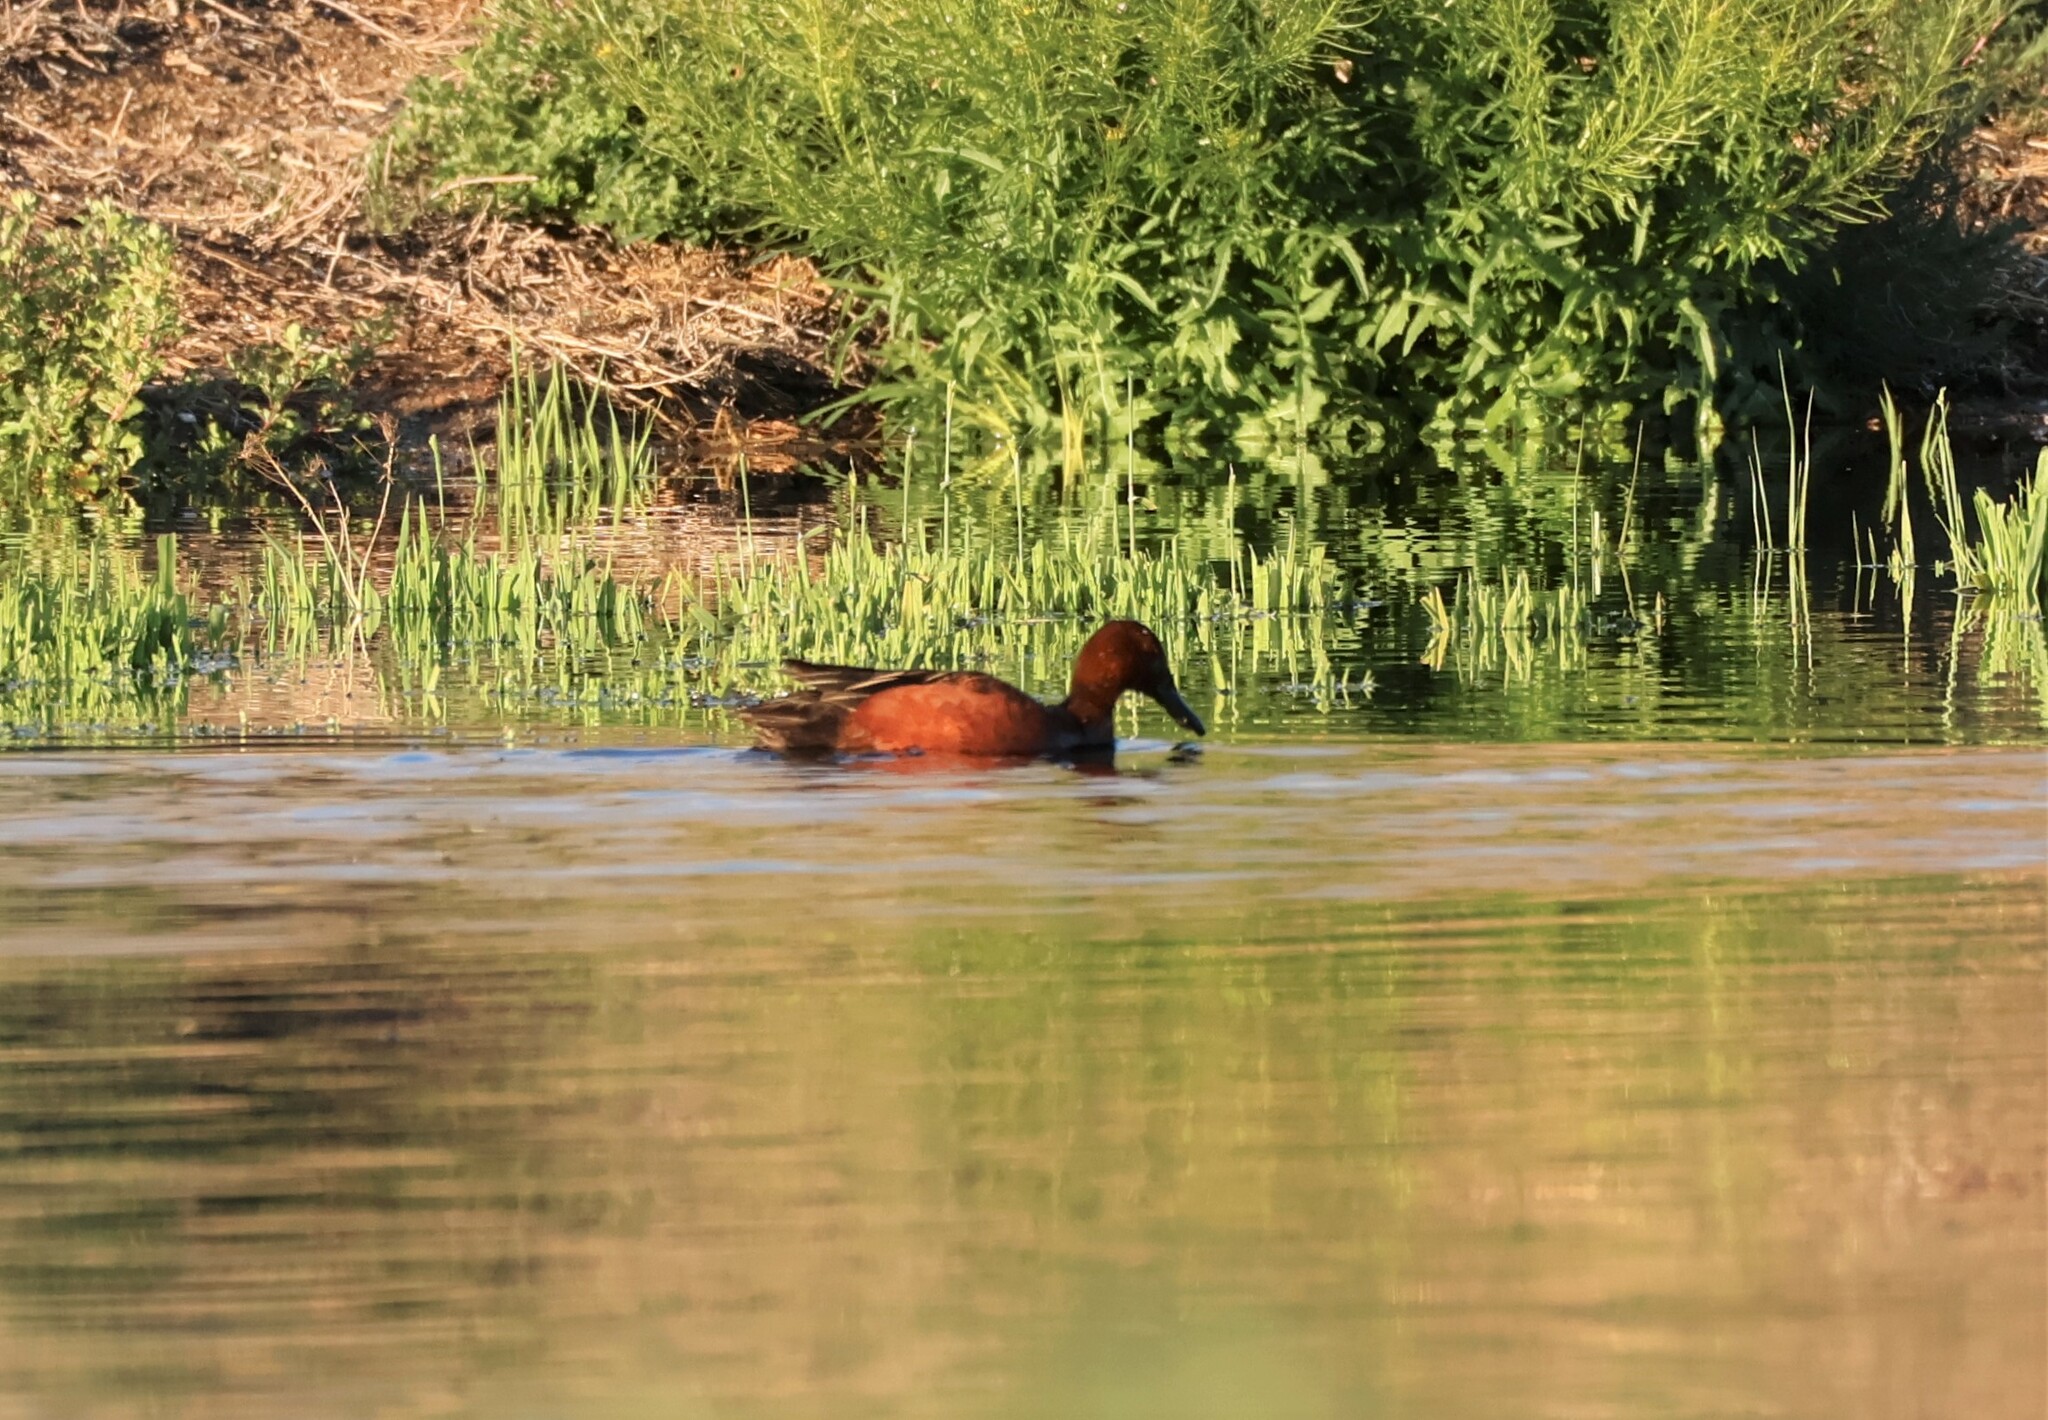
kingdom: Animalia
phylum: Chordata
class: Aves
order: Anseriformes
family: Anatidae
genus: Spatula
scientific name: Spatula cyanoptera
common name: Cinnamon teal
